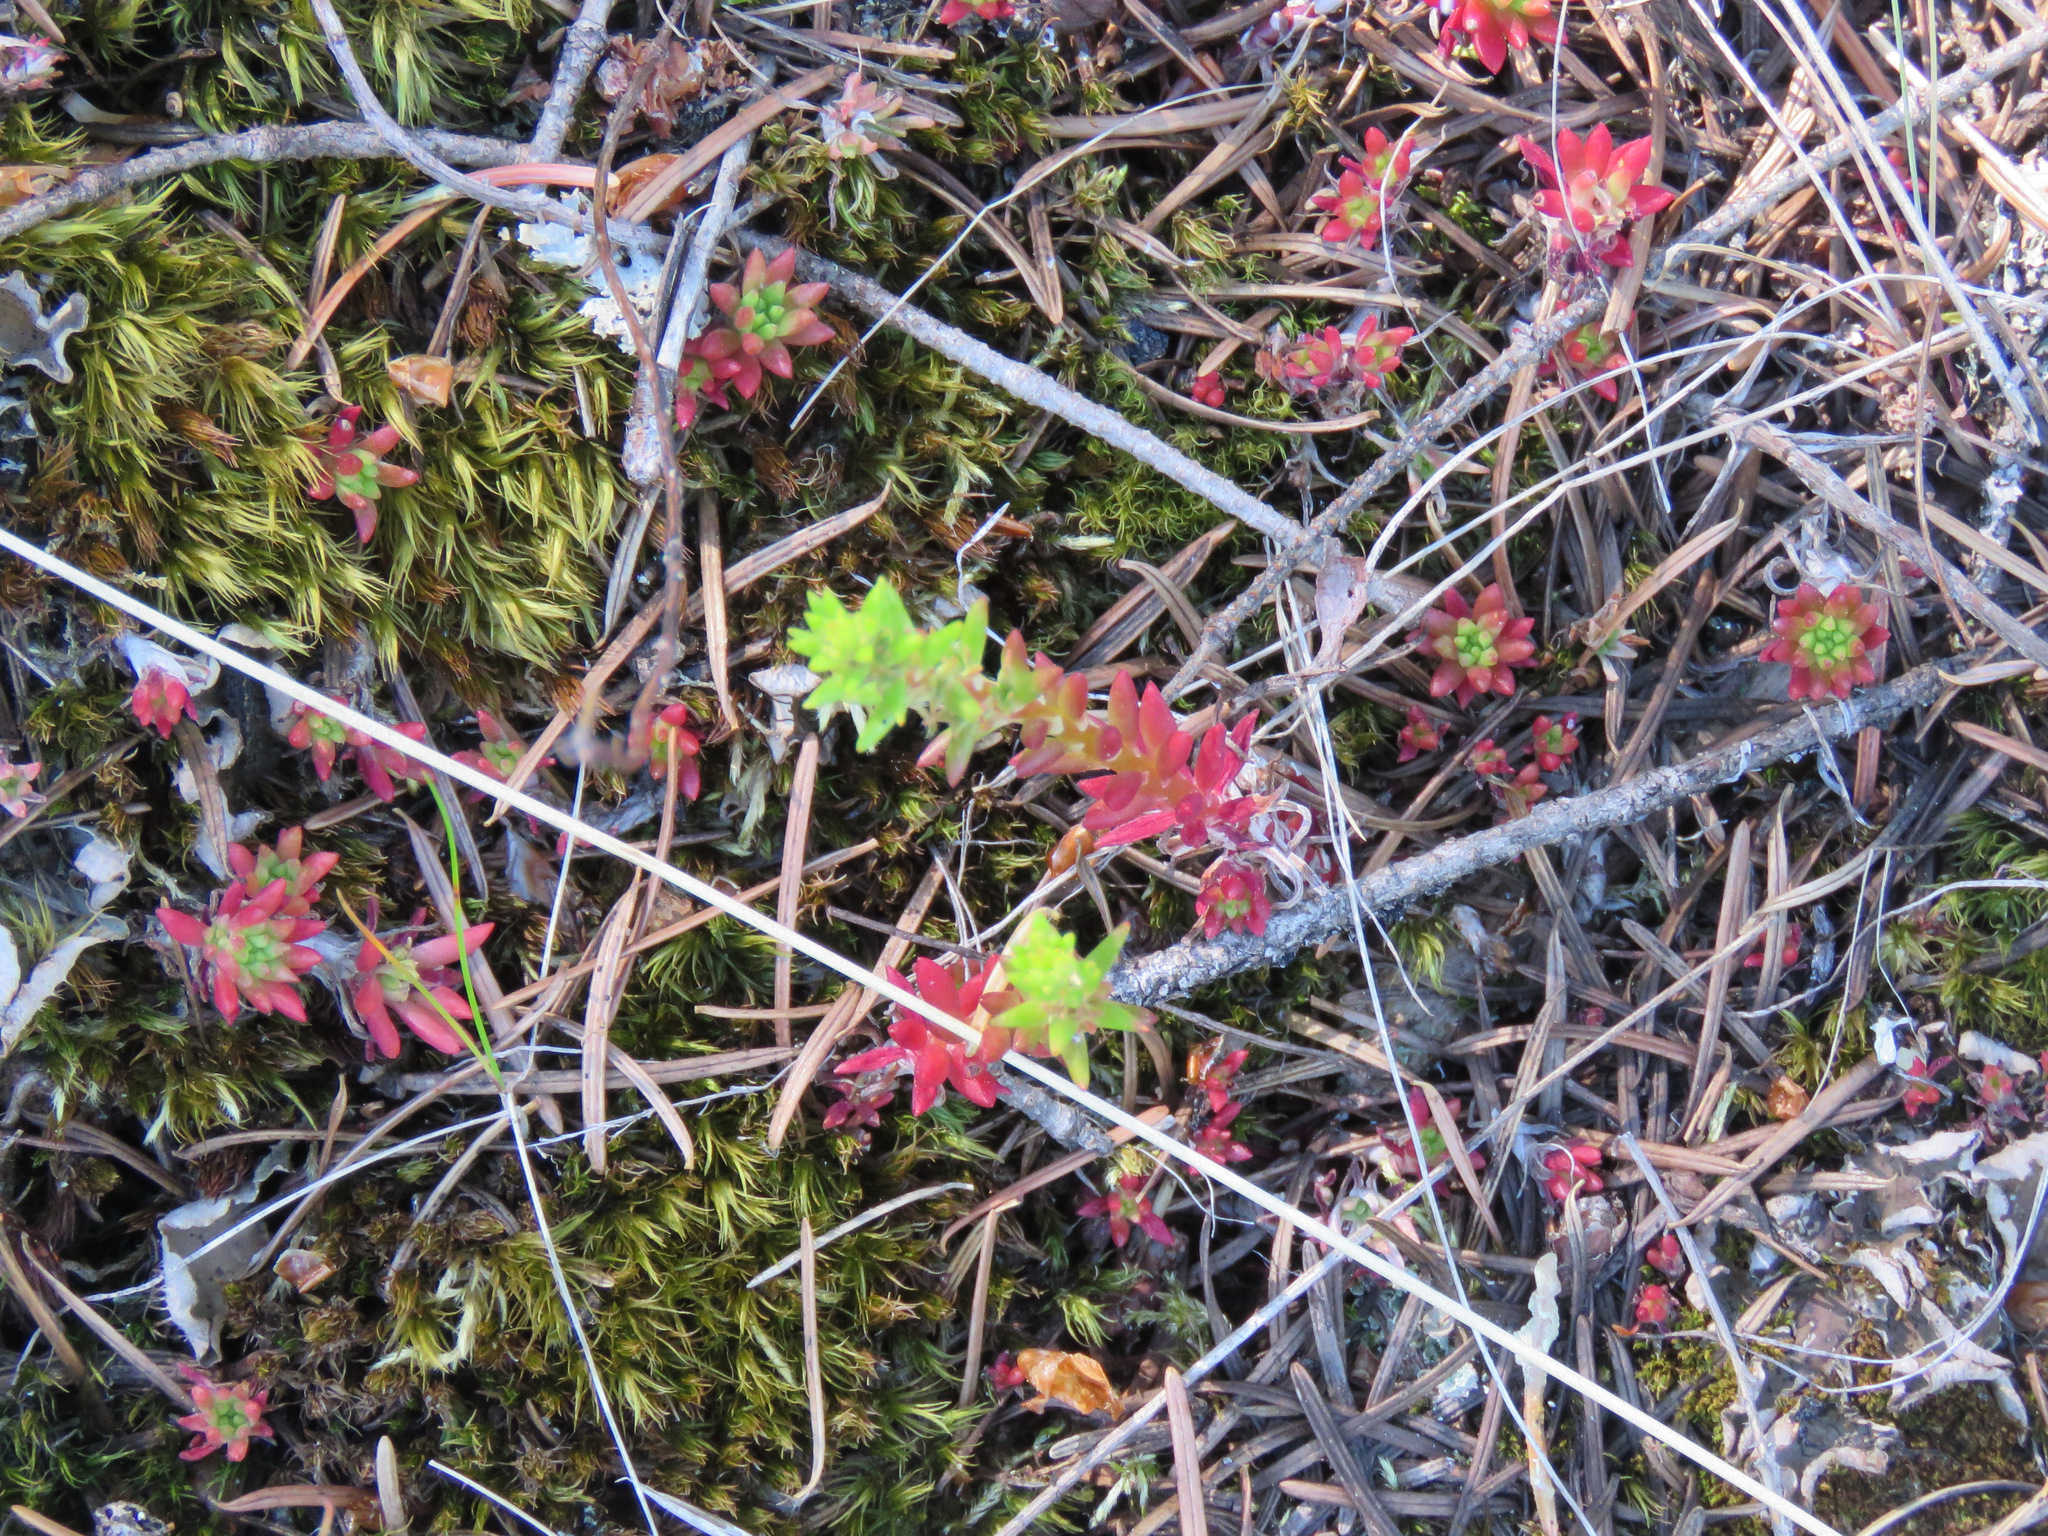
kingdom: Plantae
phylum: Tracheophyta
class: Magnoliopsida
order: Saxifragales
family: Crassulaceae
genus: Sedum
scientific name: Sedum stenopetalum
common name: Narrow-petaled stonecrop
